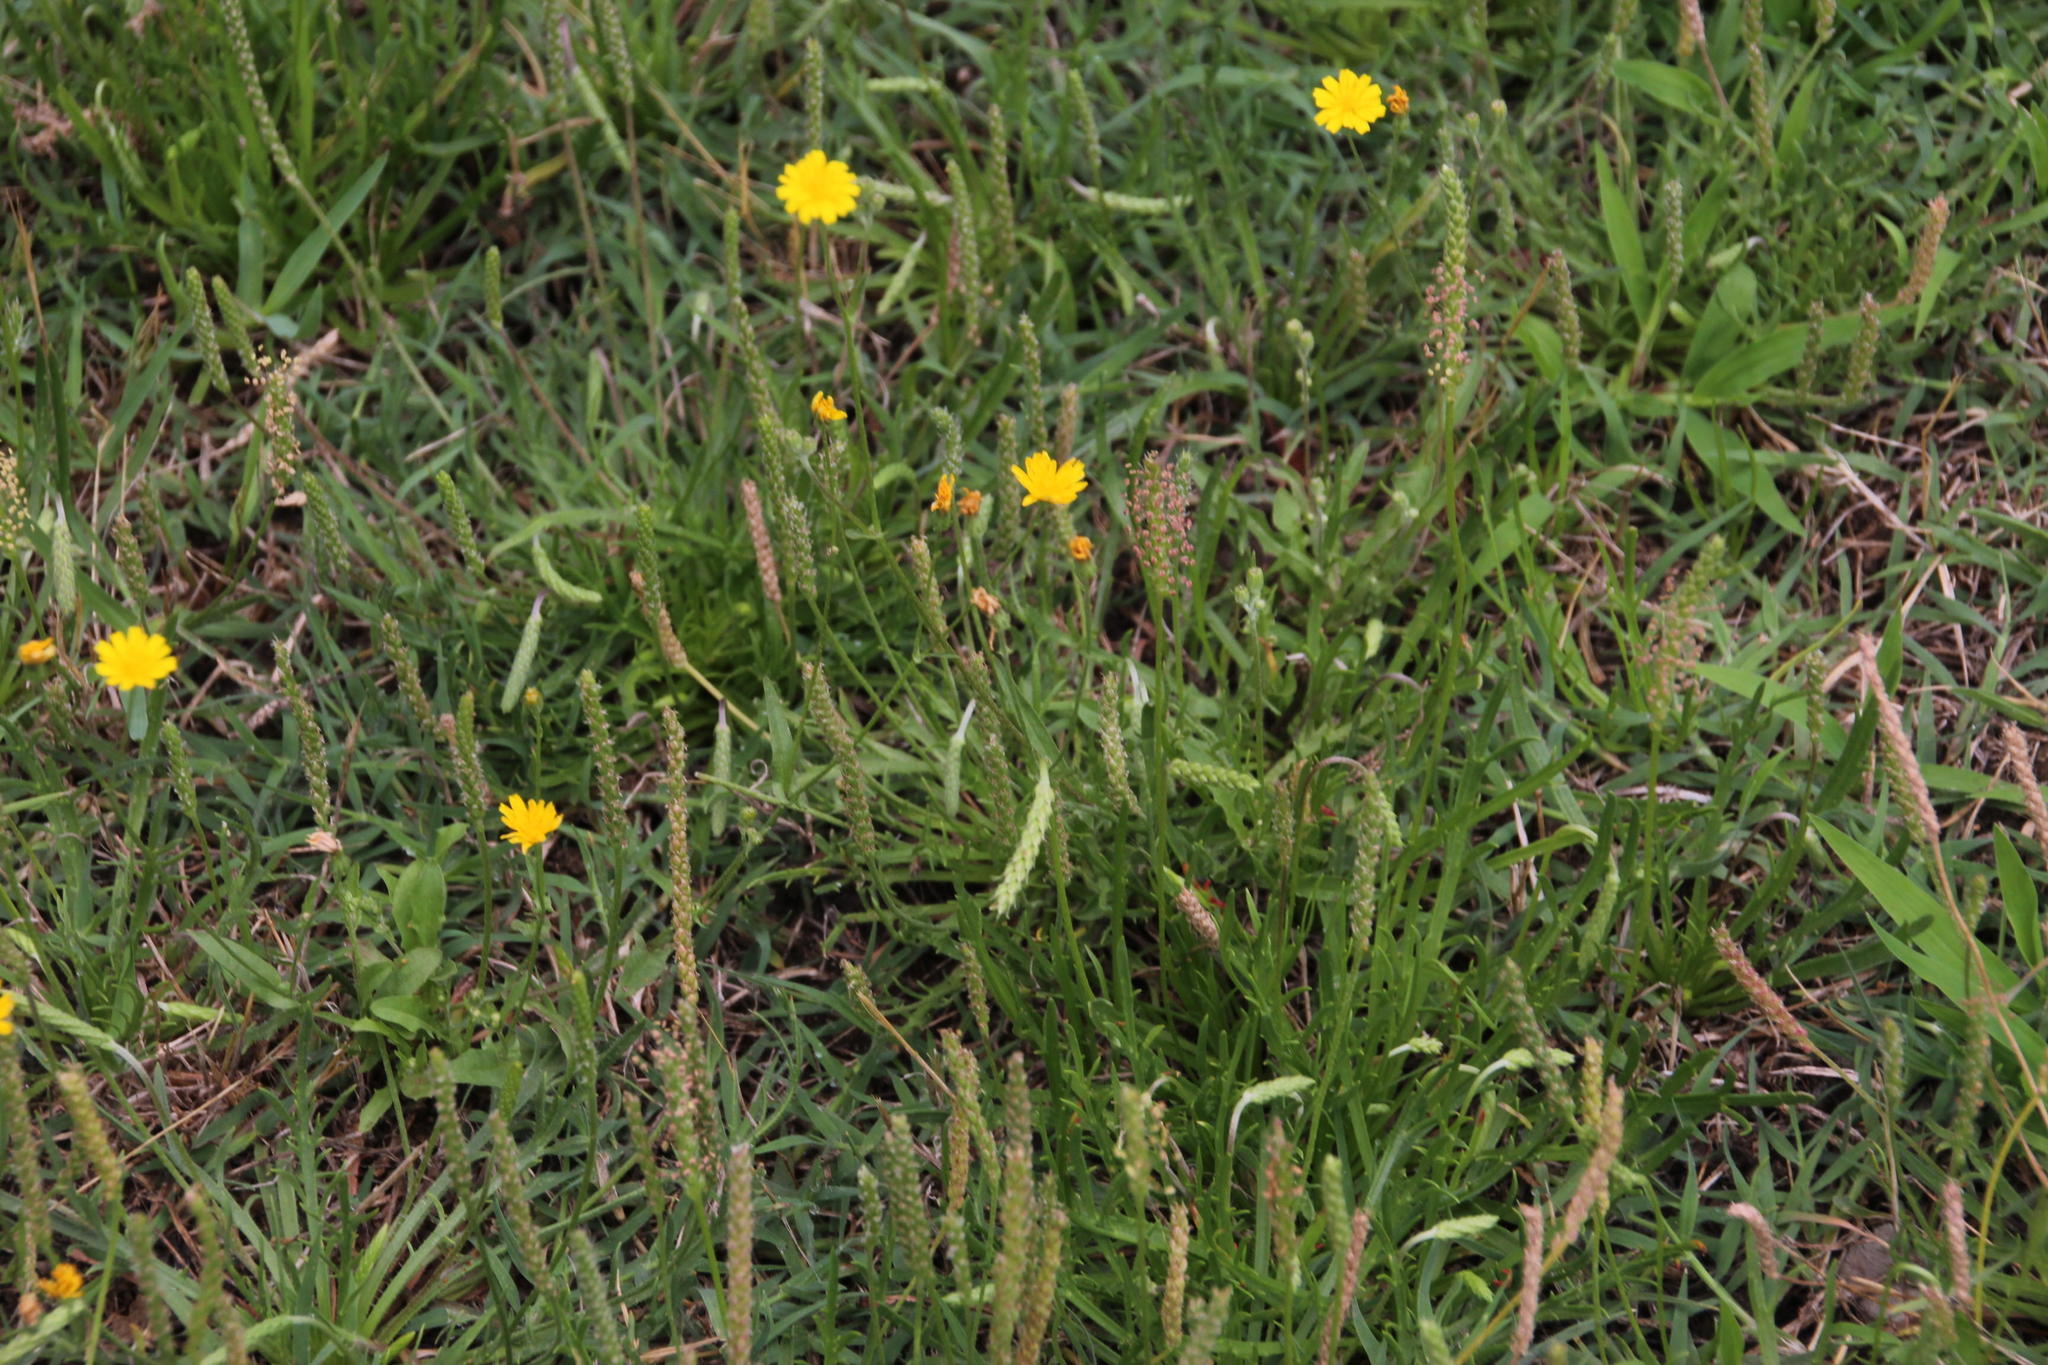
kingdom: Plantae
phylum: Tracheophyta
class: Magnoliopsida
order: Lamiales
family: Plantaginaceae
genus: Plantago
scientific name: Plantago coronopus
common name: Buck's-horn plantain
